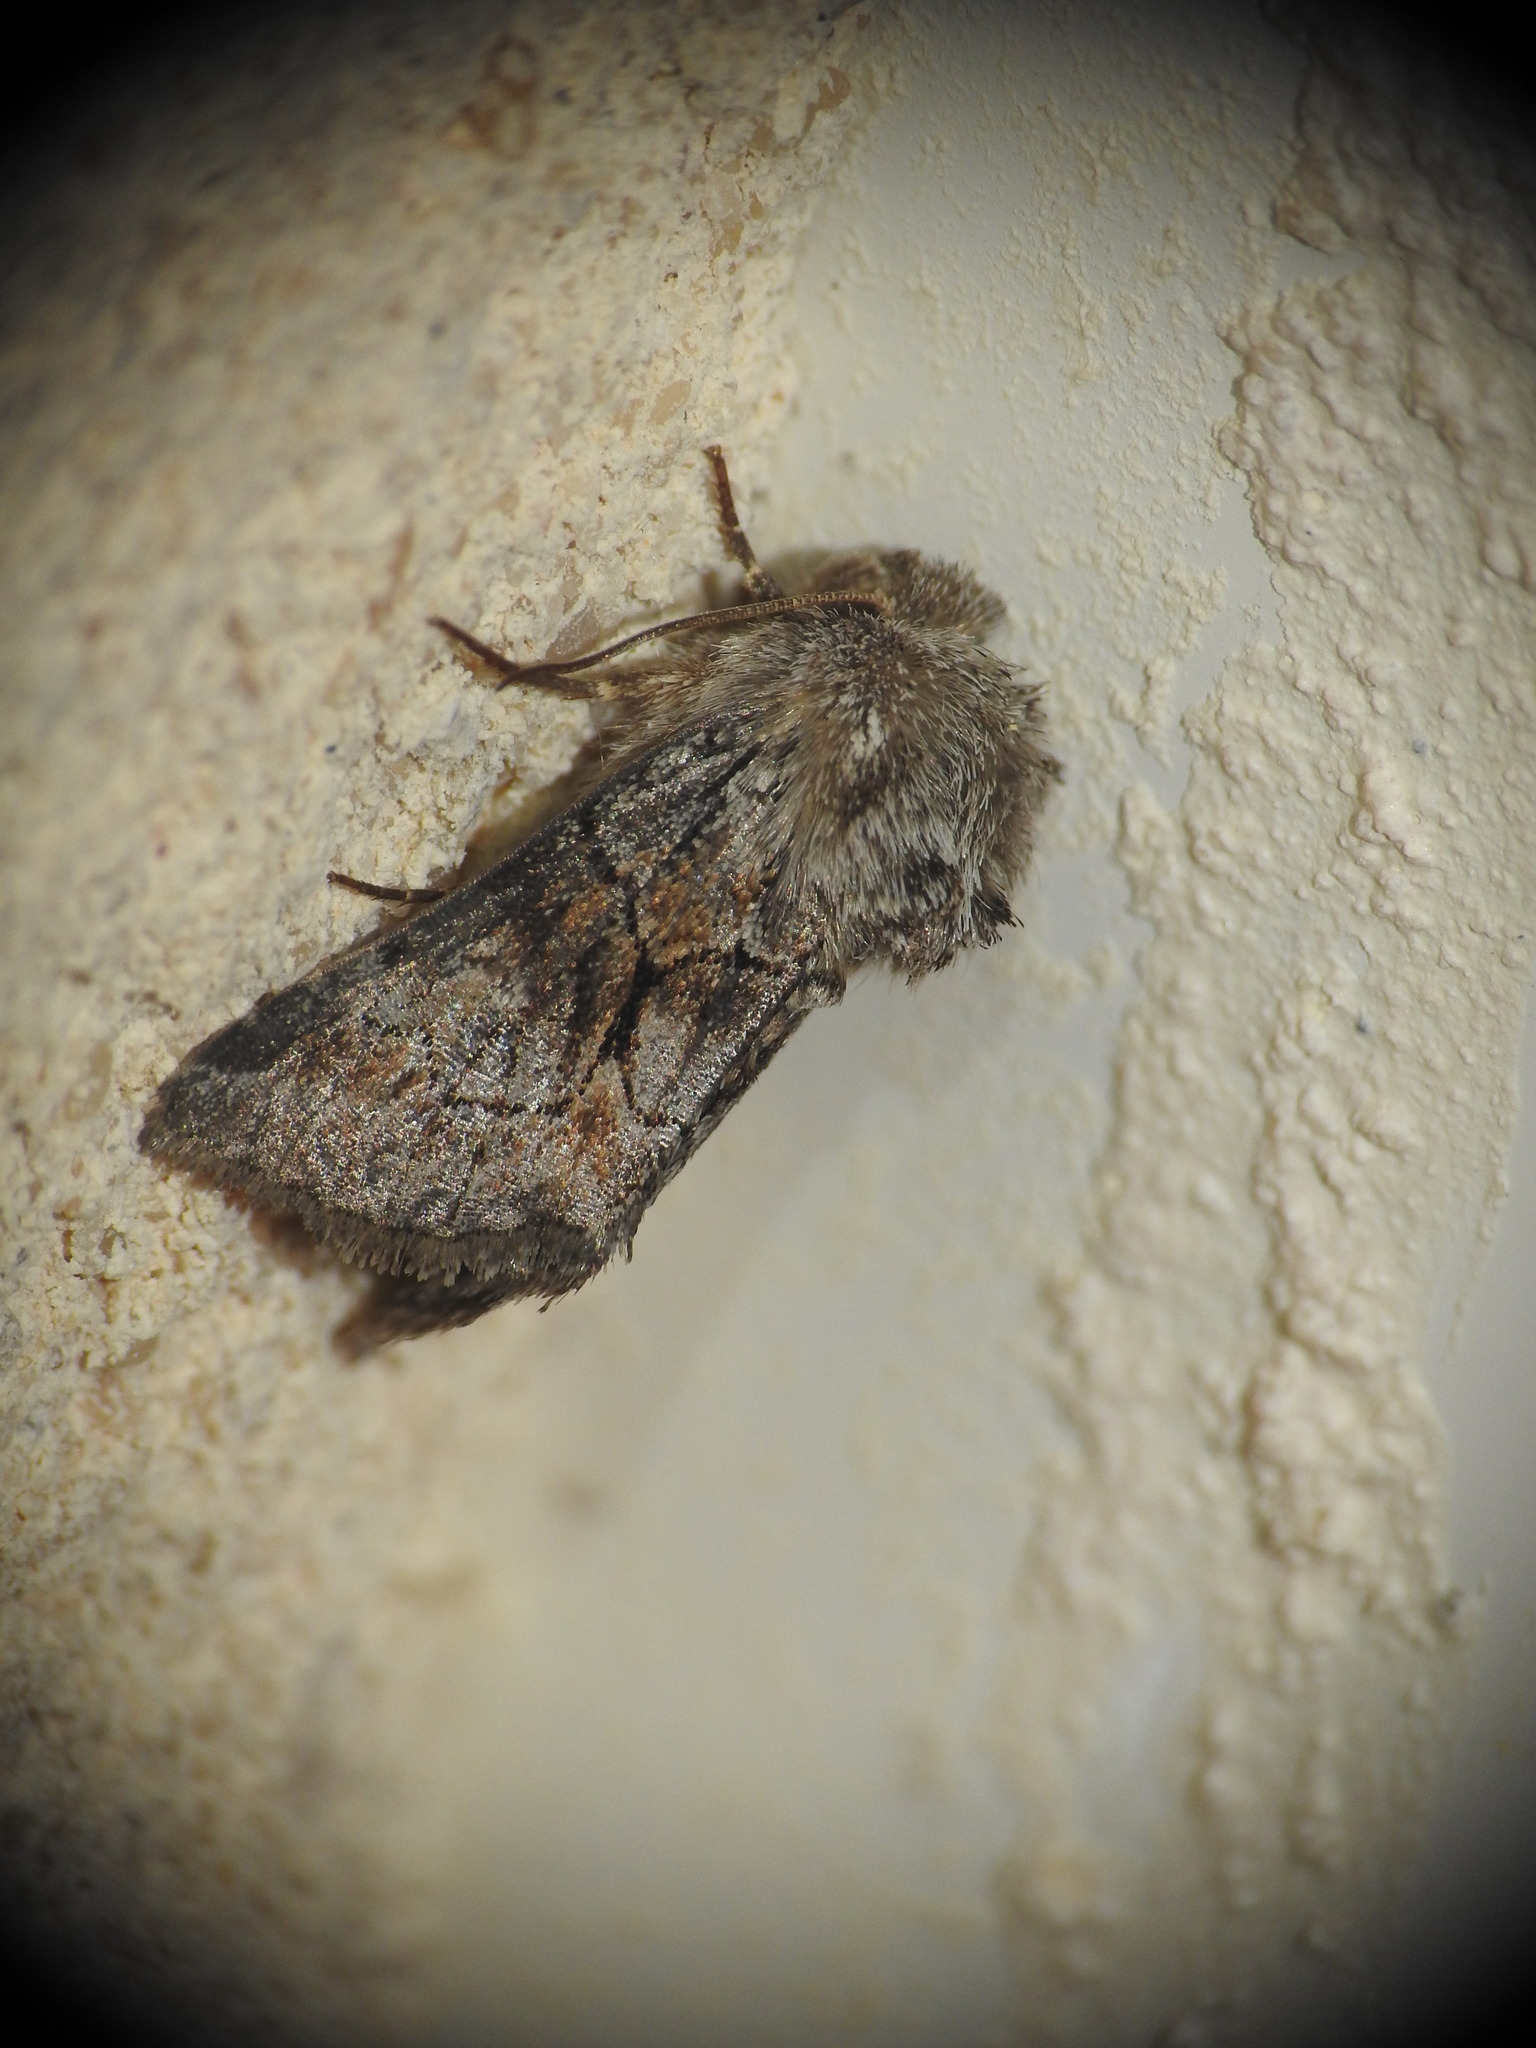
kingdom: Animalia
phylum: Arthropoda
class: Insecta
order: Lepidoptera
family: Noctuidae
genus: Cleonymia
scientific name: Cleonymia yvanii
